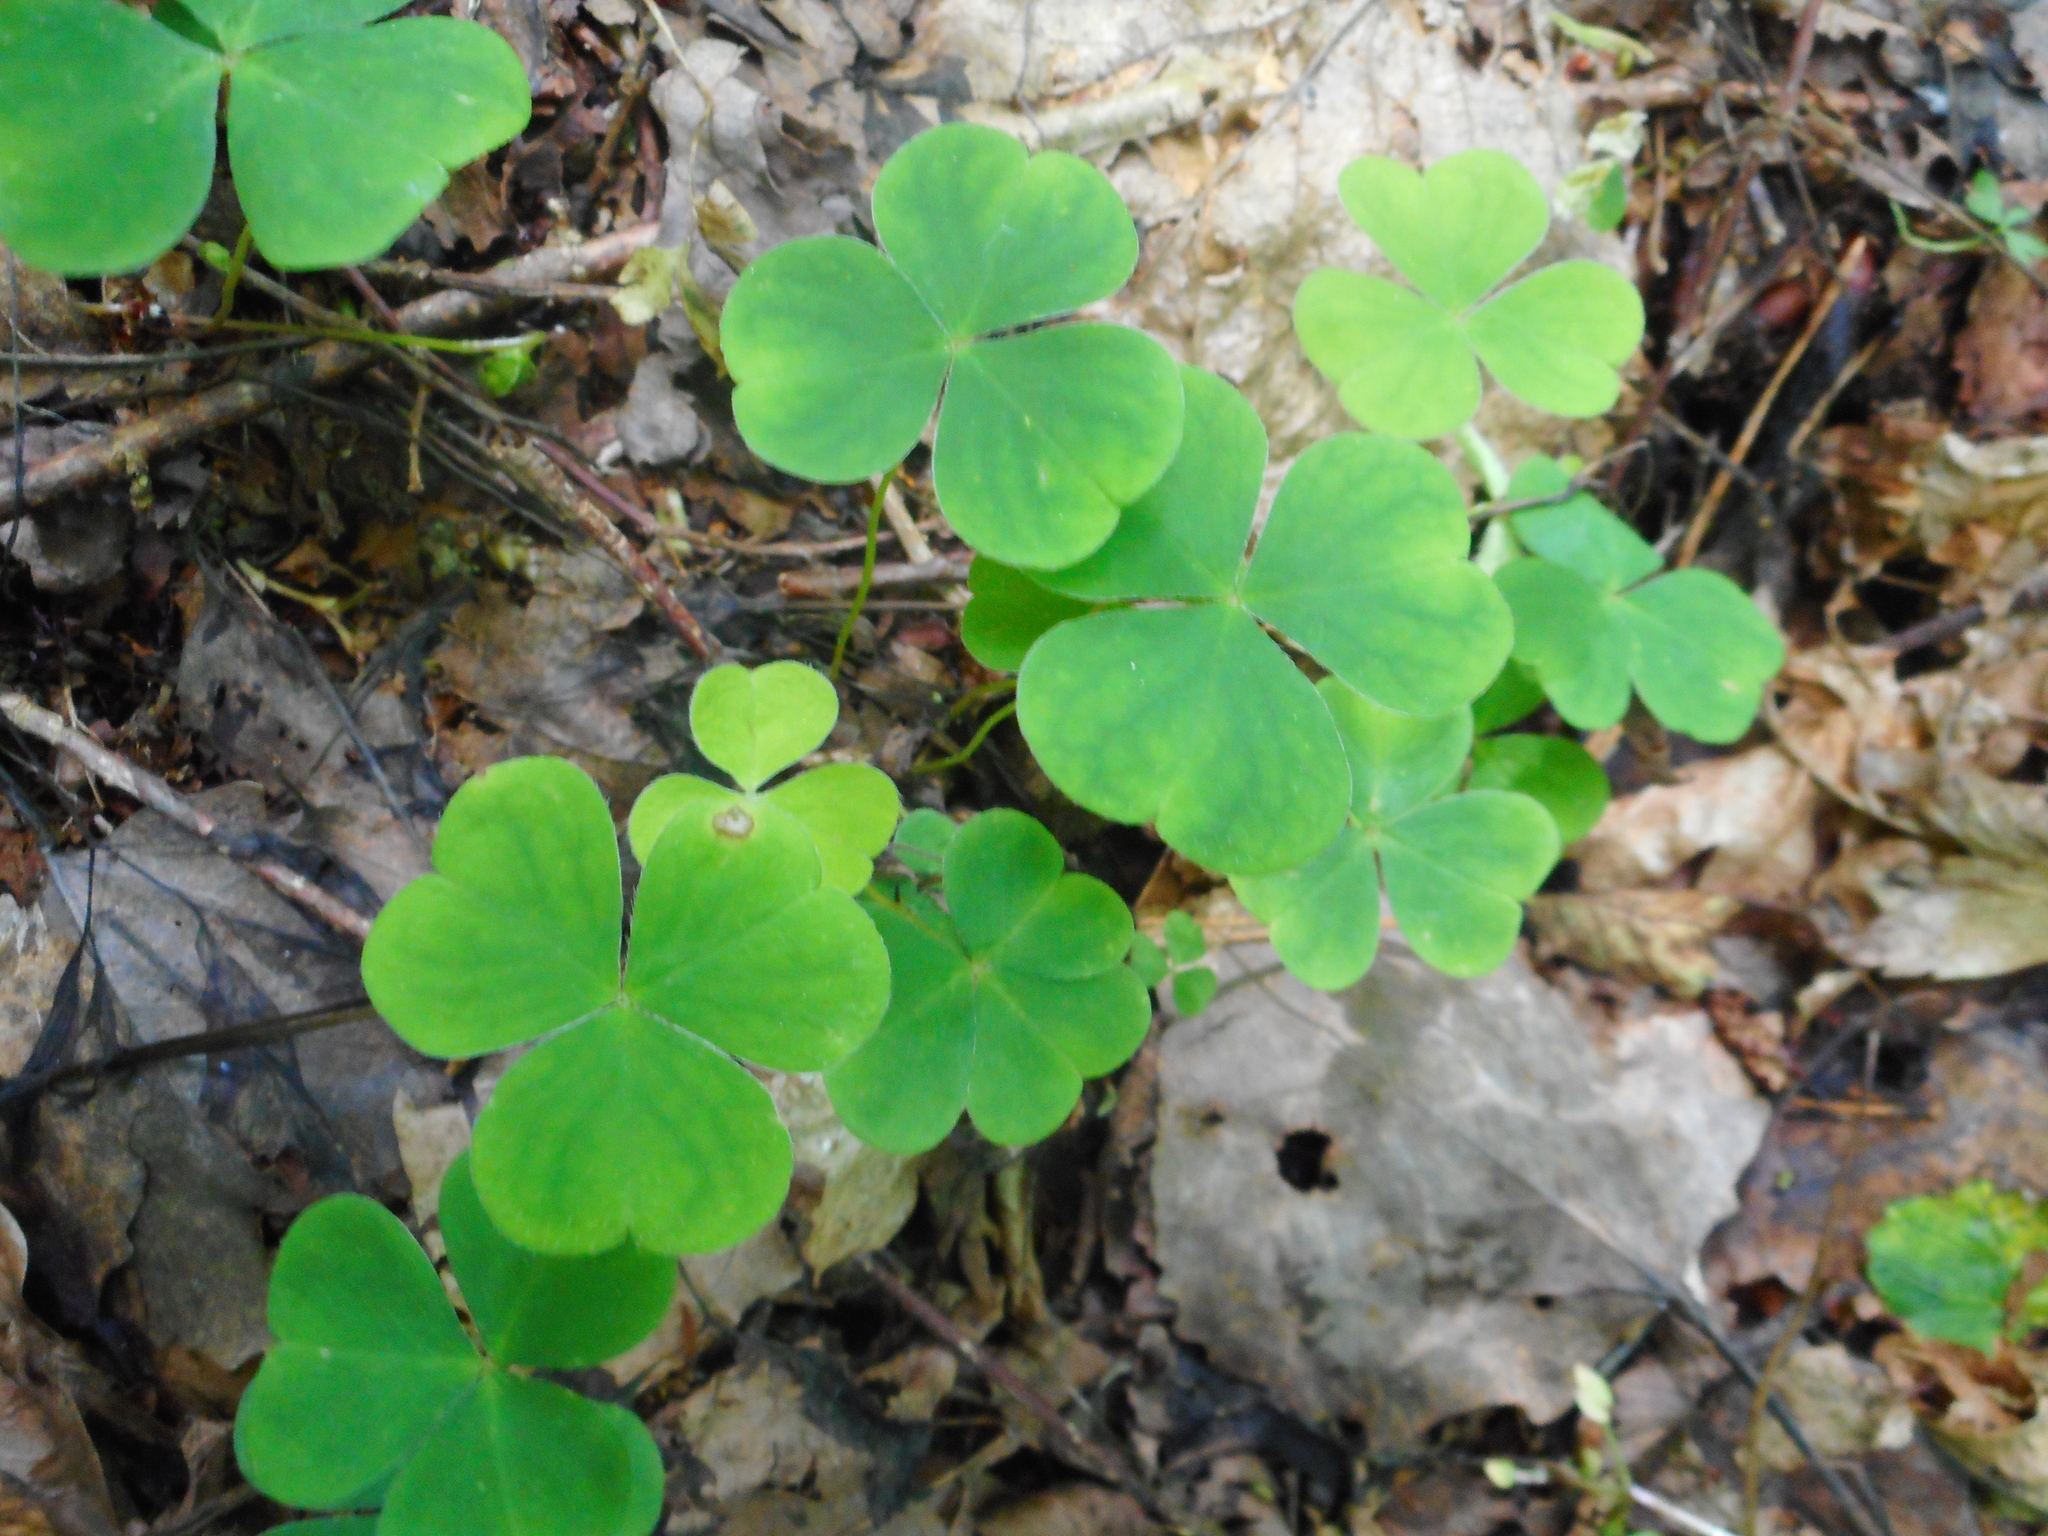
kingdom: Plantae
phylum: Tracheophyta
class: Magnoliopsida
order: Oxalidales
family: Oxalidaceae
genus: Oxalis
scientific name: Oxalis acetosella
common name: Wood-sorrel
